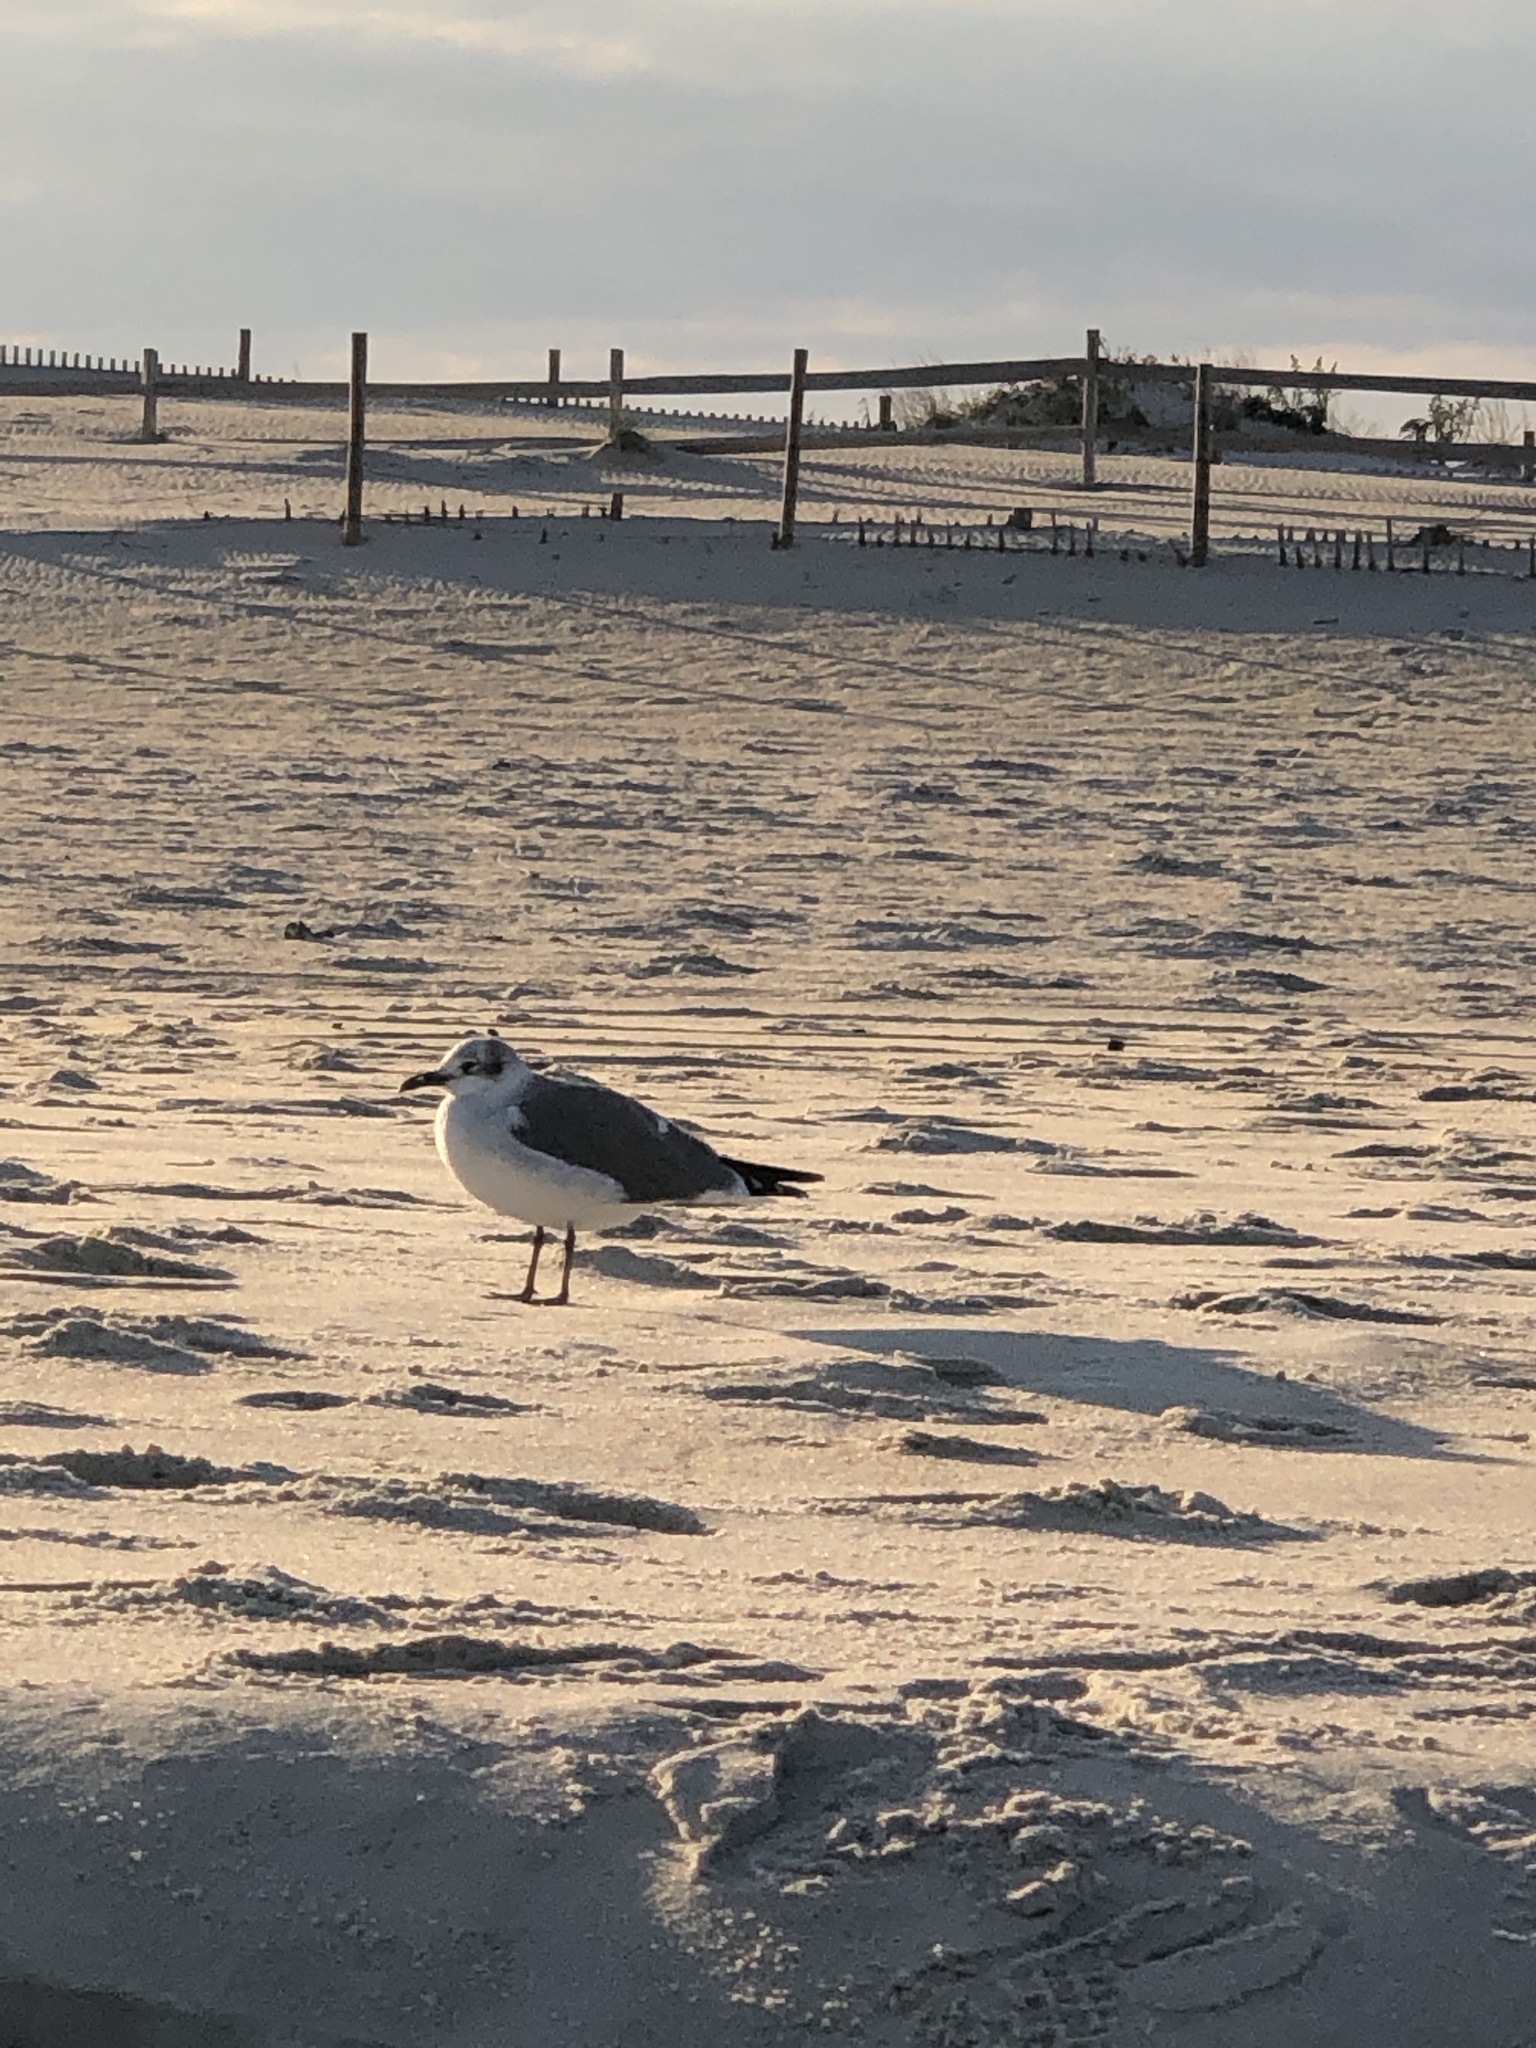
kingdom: Animalia
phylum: Chordata
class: Aves
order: Charadriiformes
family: Laridae
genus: Leucophaeus
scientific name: Leucophaeus atricilla
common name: Laughing gull
